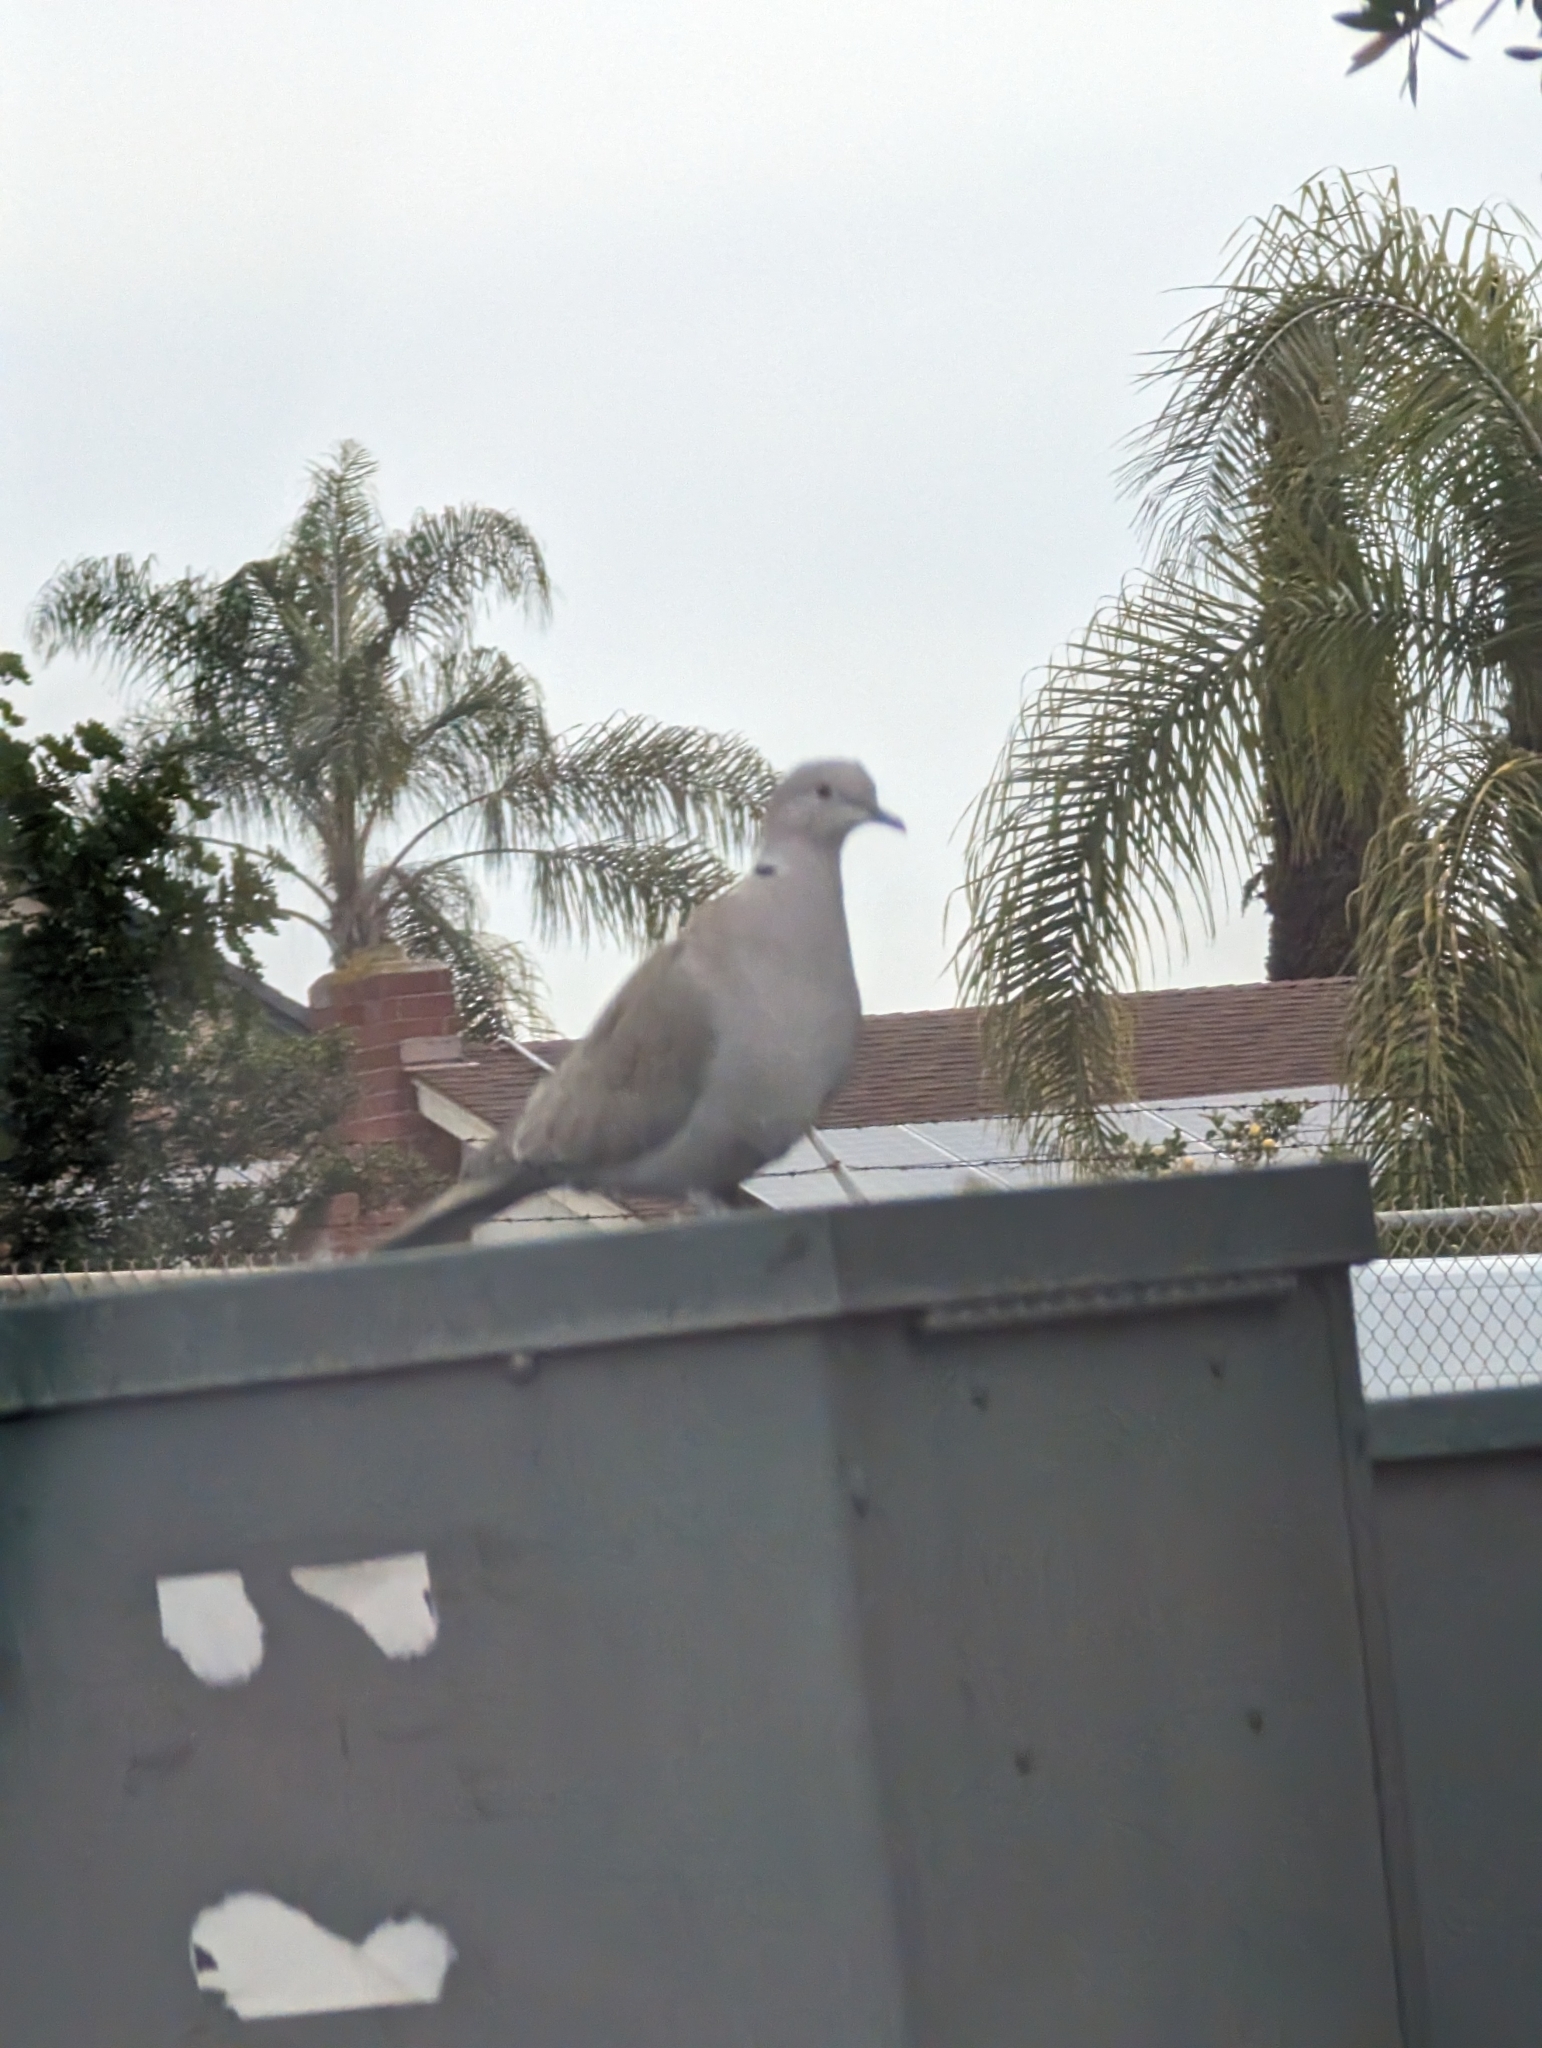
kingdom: Animalia
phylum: Chordata
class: Aves
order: Columbiformes
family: Columbidae
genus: Streptopelia
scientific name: Streptopelia decaocto
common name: Eurasian collared dove
